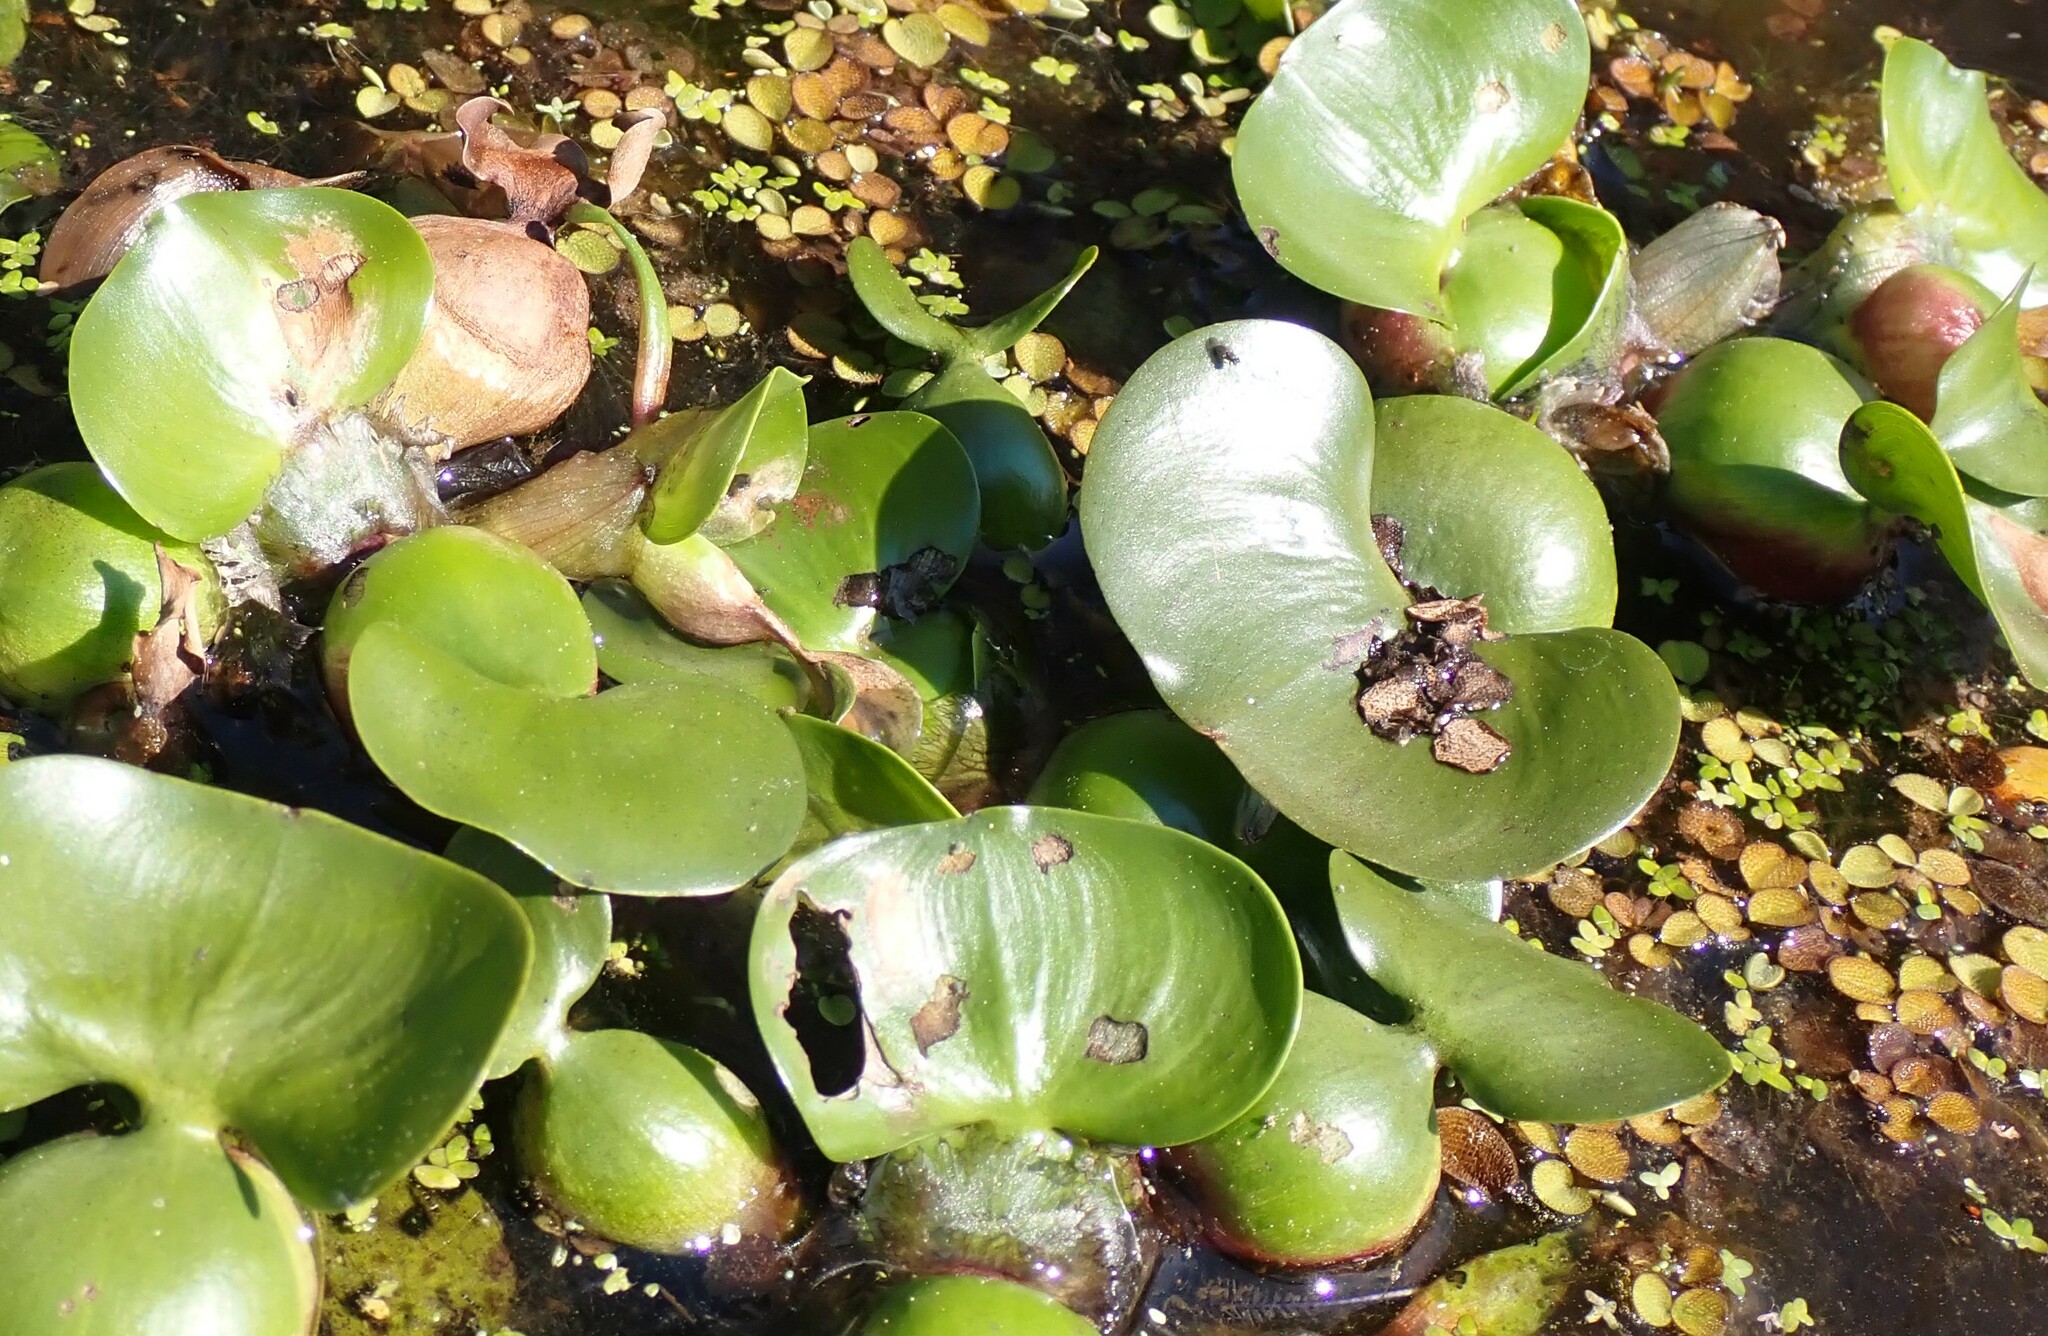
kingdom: Plantae
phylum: Tracheophyta
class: Liliopsida
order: Commelinales
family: Pontederiaceae
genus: Pontederia
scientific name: Pontederia crassipes
